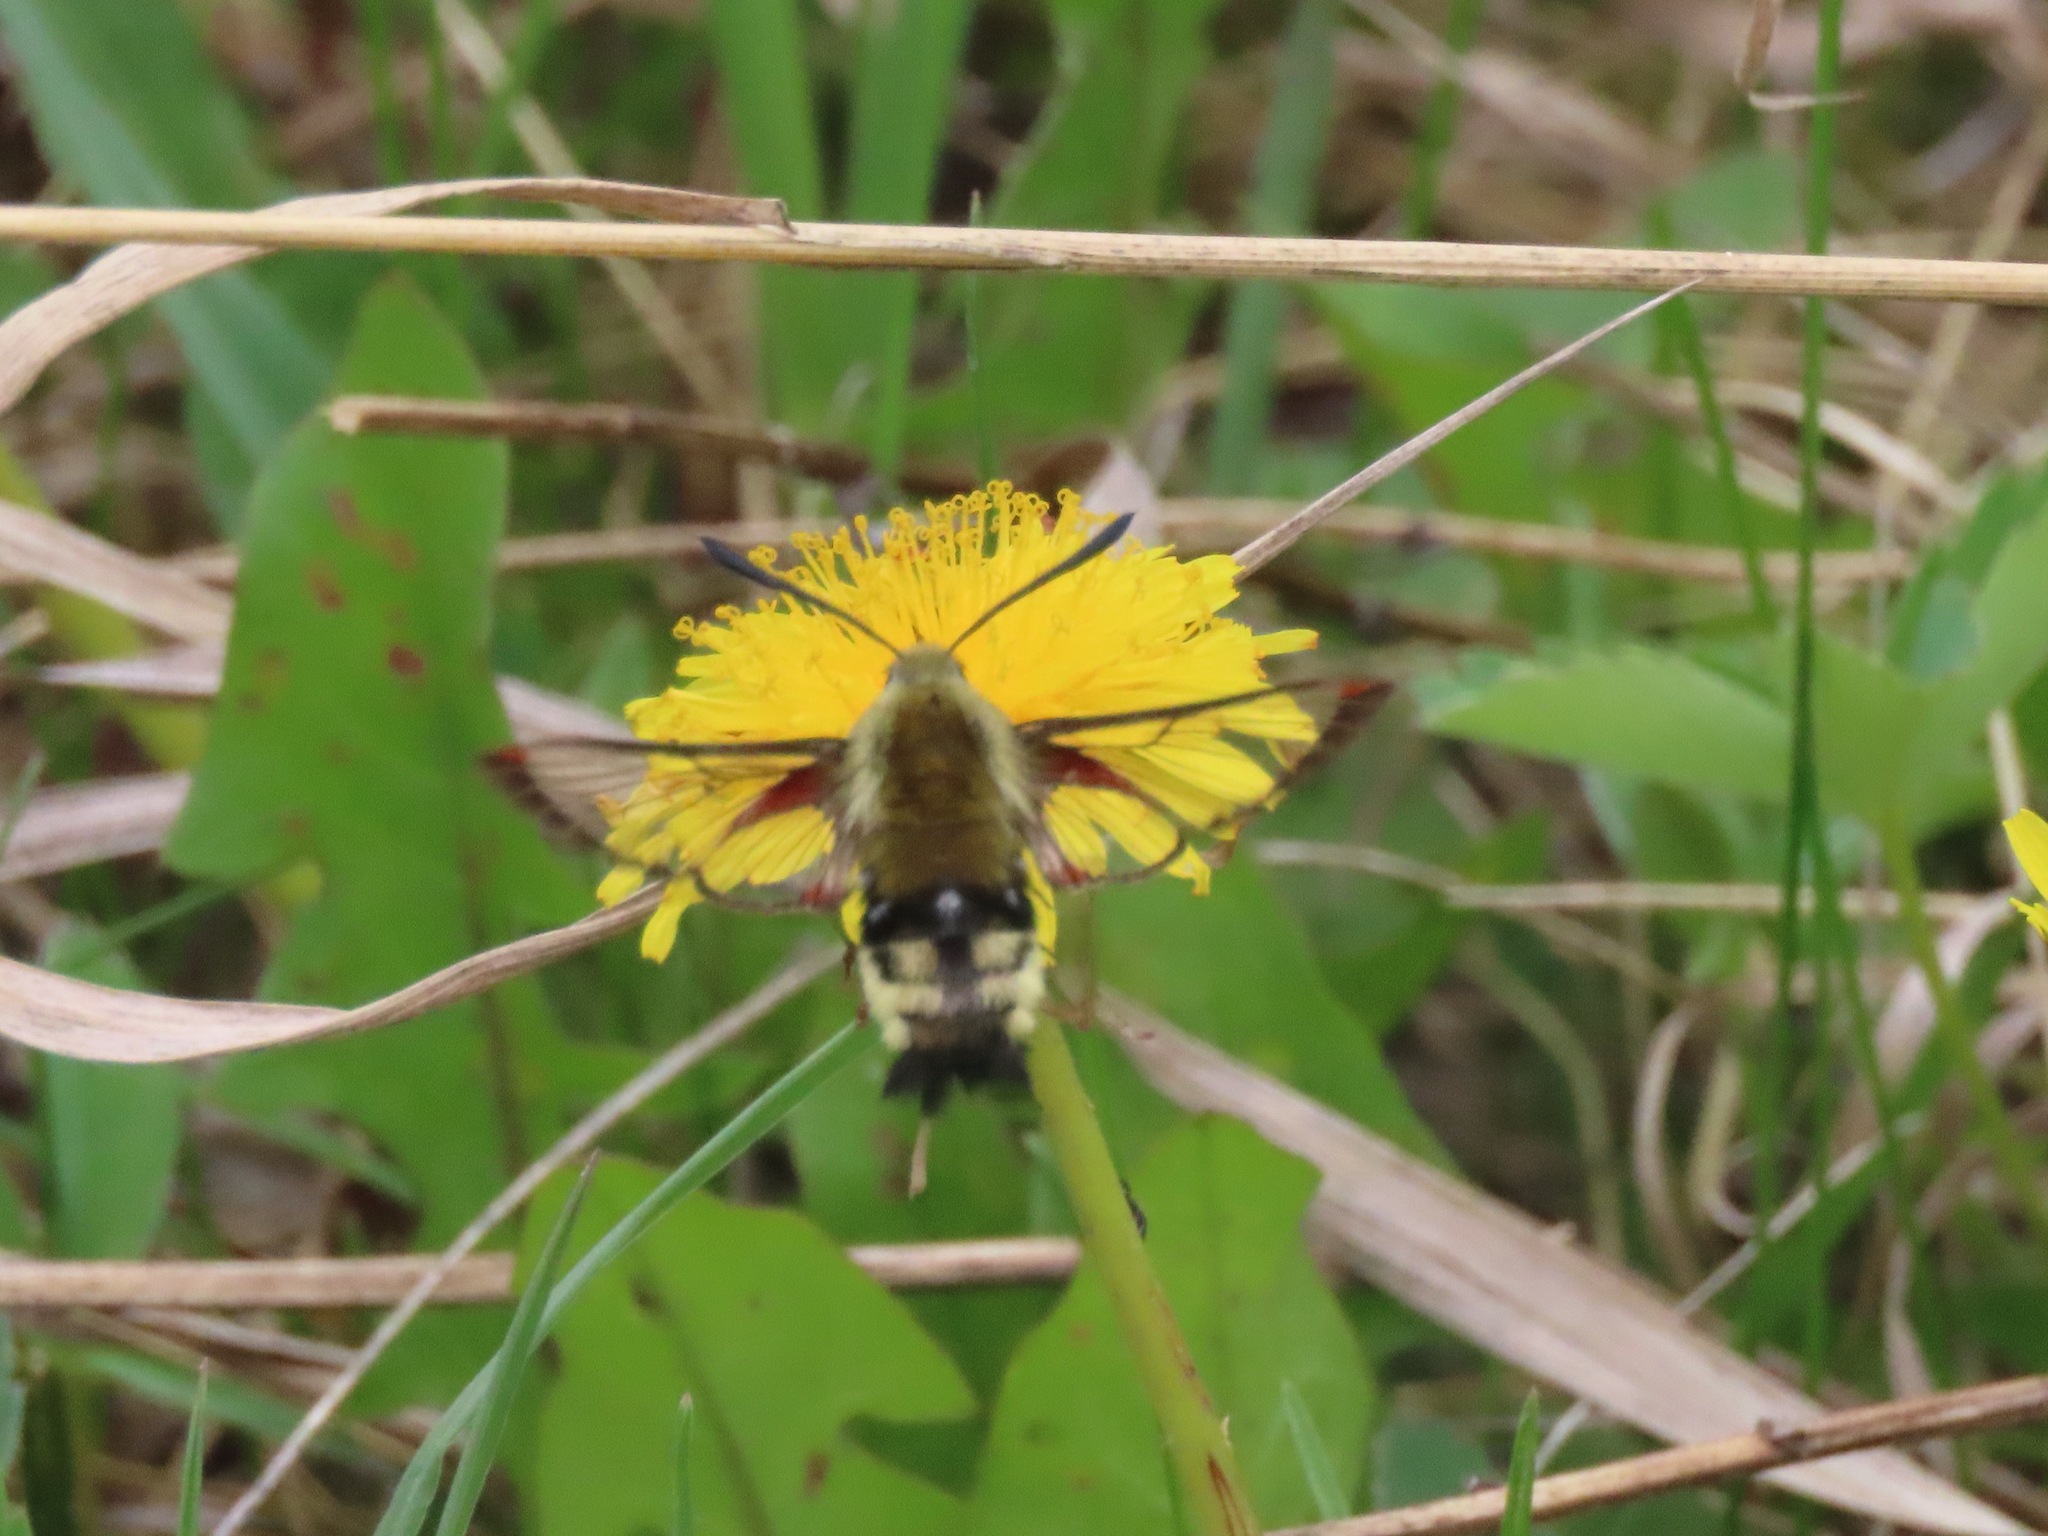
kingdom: Animalia
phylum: Arthropoda
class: Insecta
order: Lepidoptera
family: Sphingidae
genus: Hemaris
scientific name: Hemaris thetis
